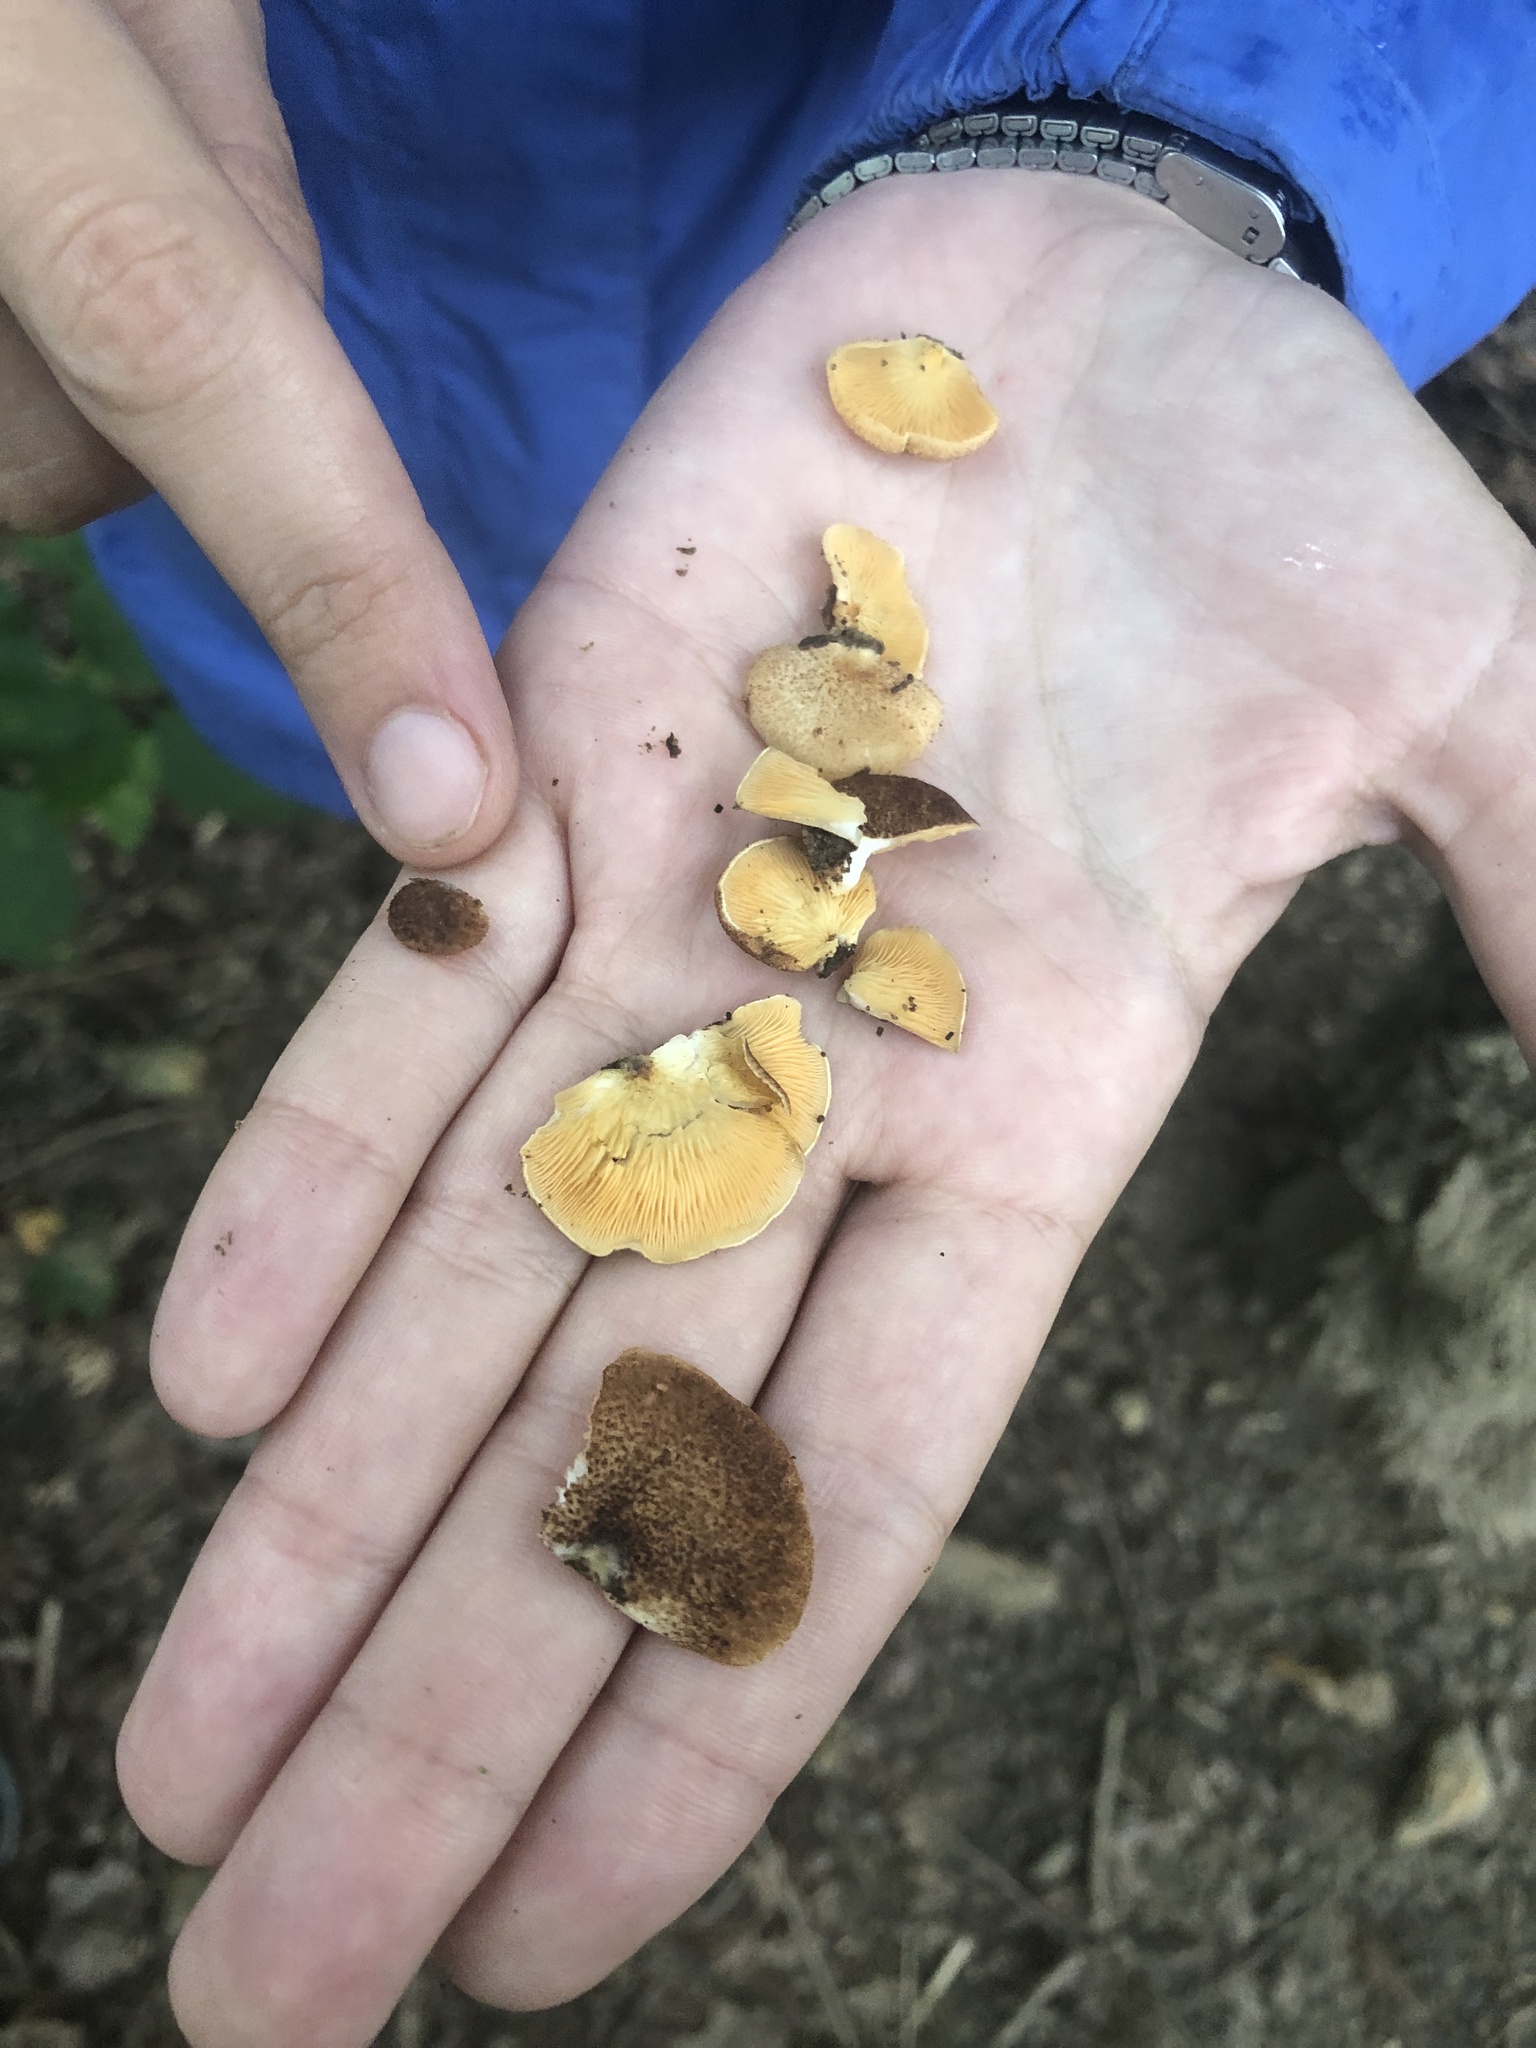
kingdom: Fungi
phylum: Basidiomycota
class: Agaricomycetes
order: Agaricales
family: Crepidotaceae
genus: Crepidotus
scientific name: Crepidotus crocophyllus
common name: Saffron oysterling
